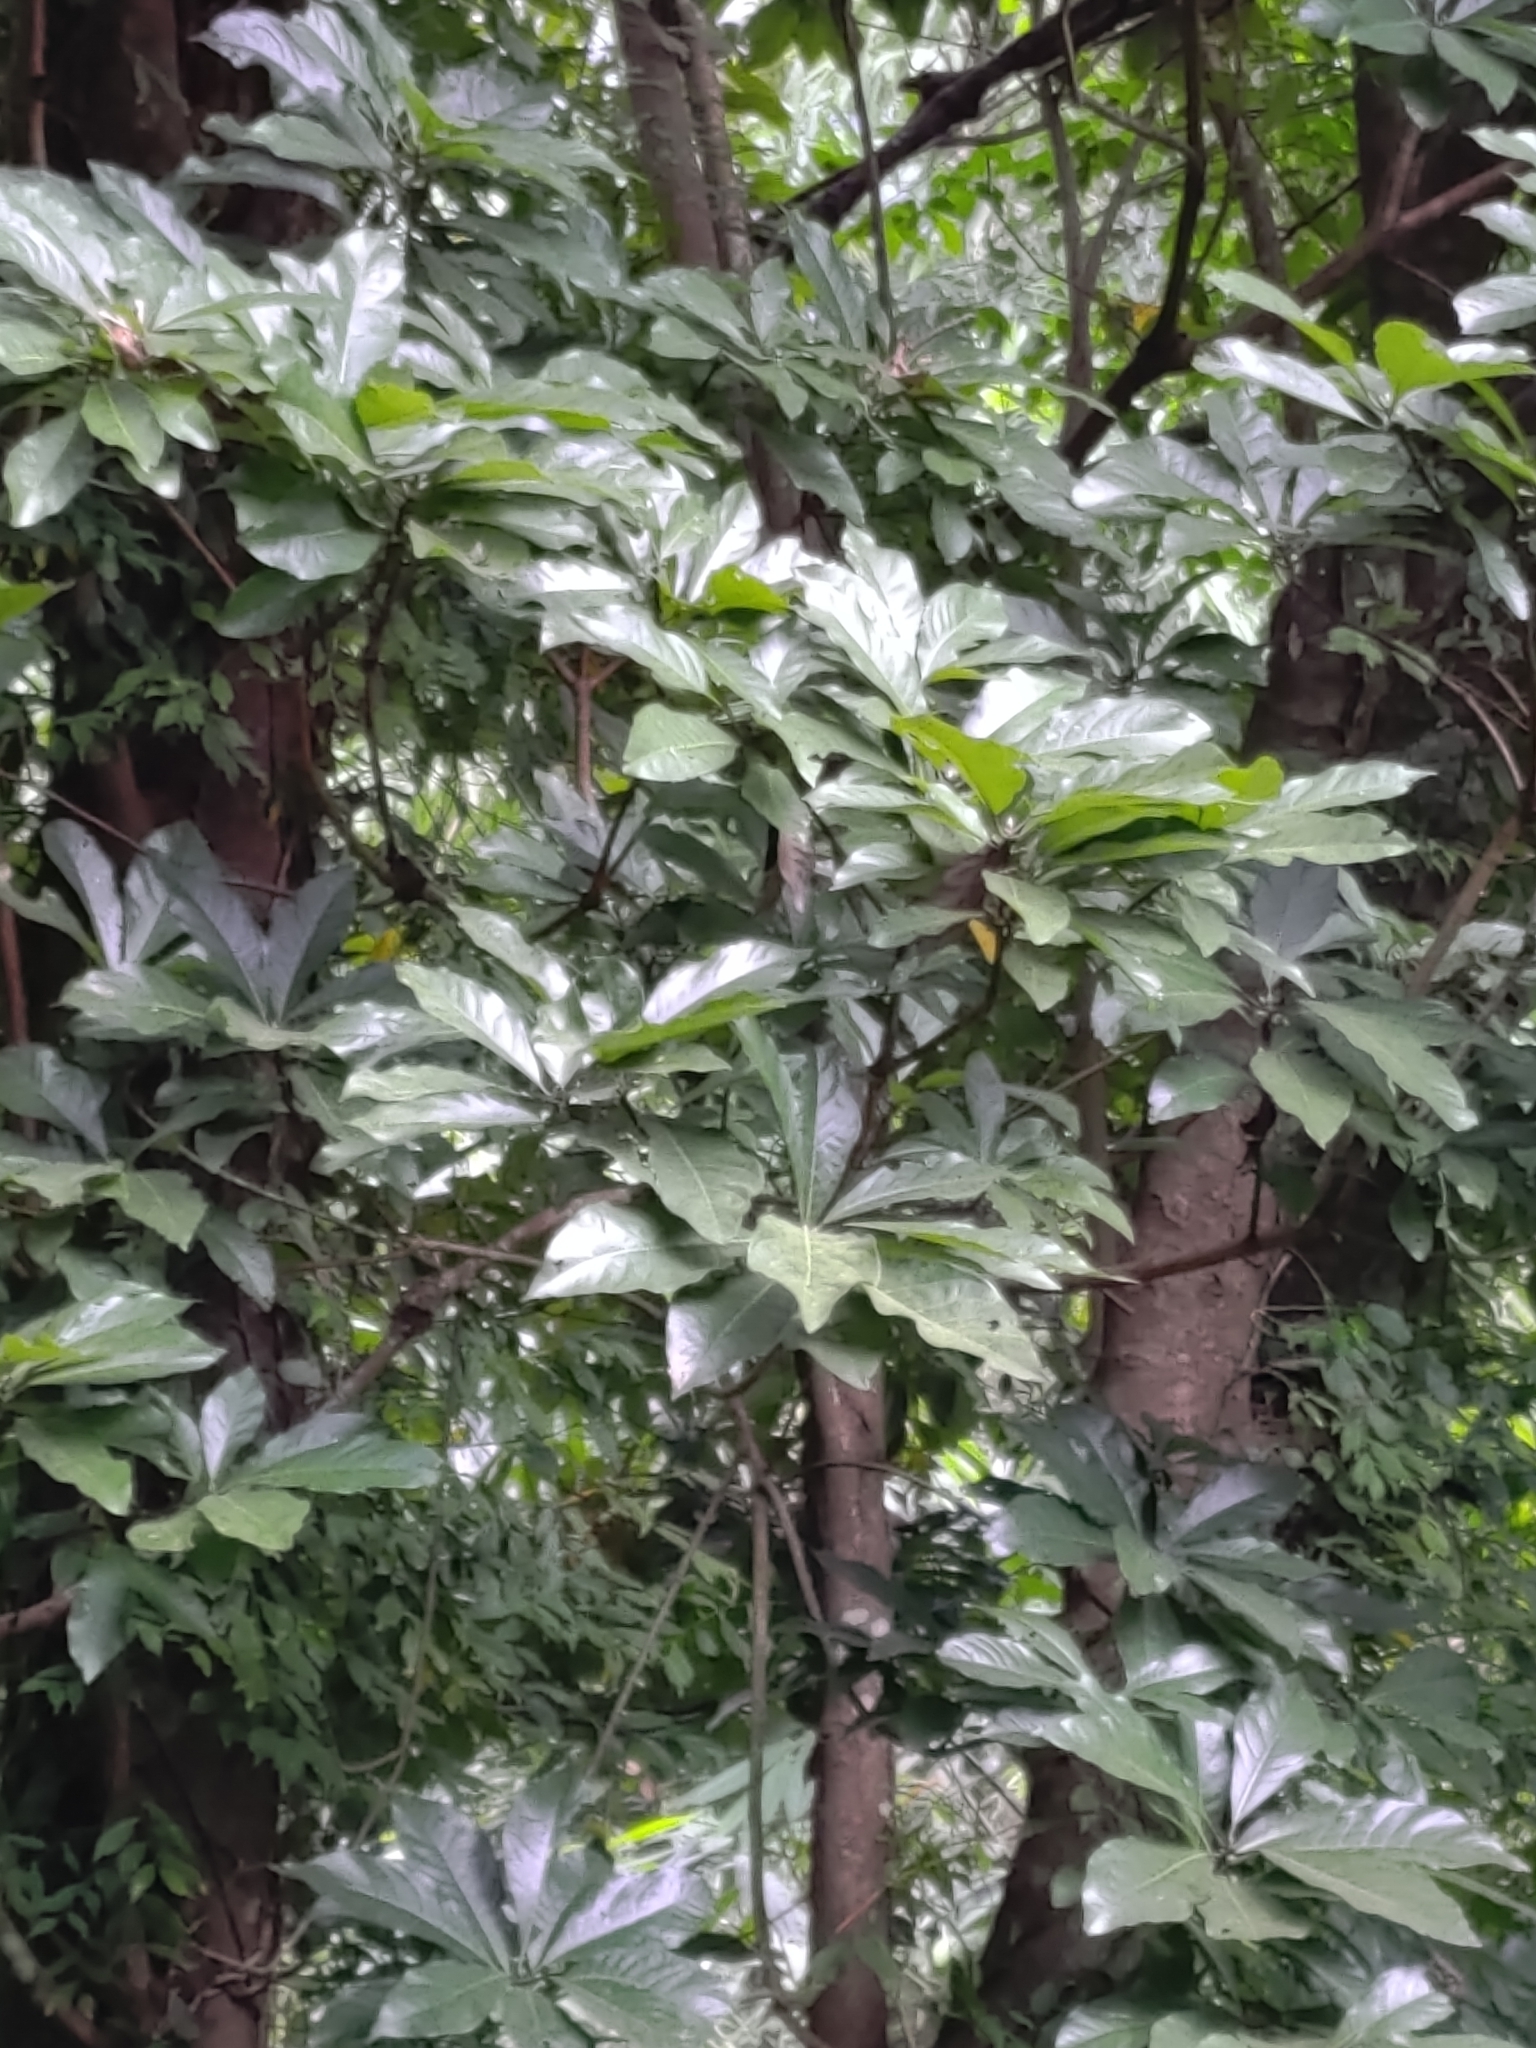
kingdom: Plantae
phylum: Tracheophyta
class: Magnoliopsida
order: Laurales
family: Lauraceae
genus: Lindera
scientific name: Lindera megaphylla
